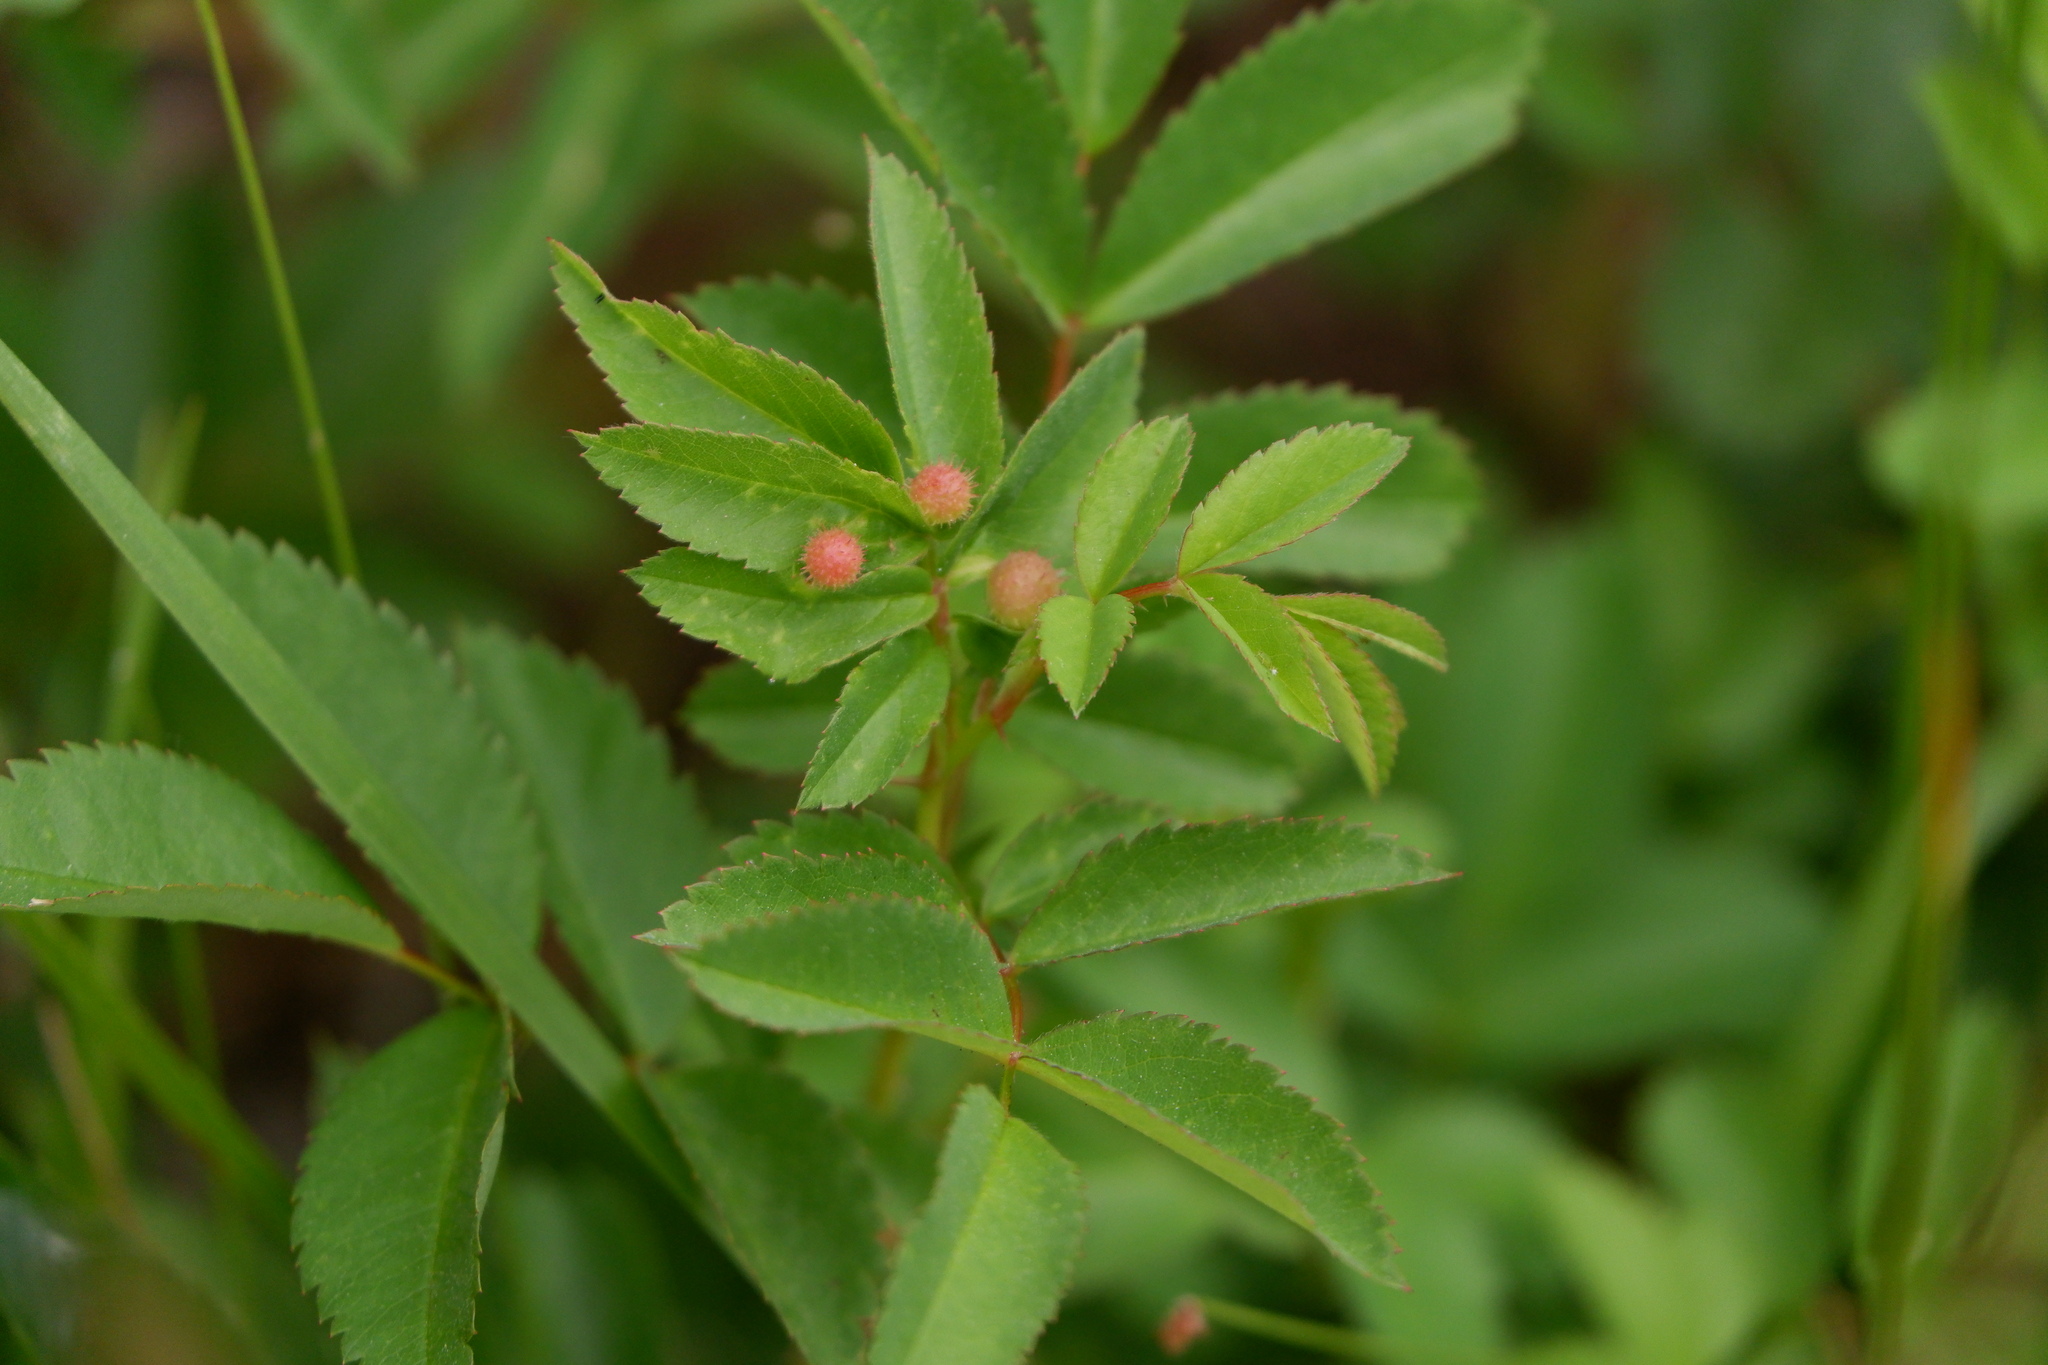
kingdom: Animalia
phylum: Arthropoda
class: Insecta
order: Hymenoptera
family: Cynipidae
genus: Diplolepis
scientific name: Diplolepis polita
